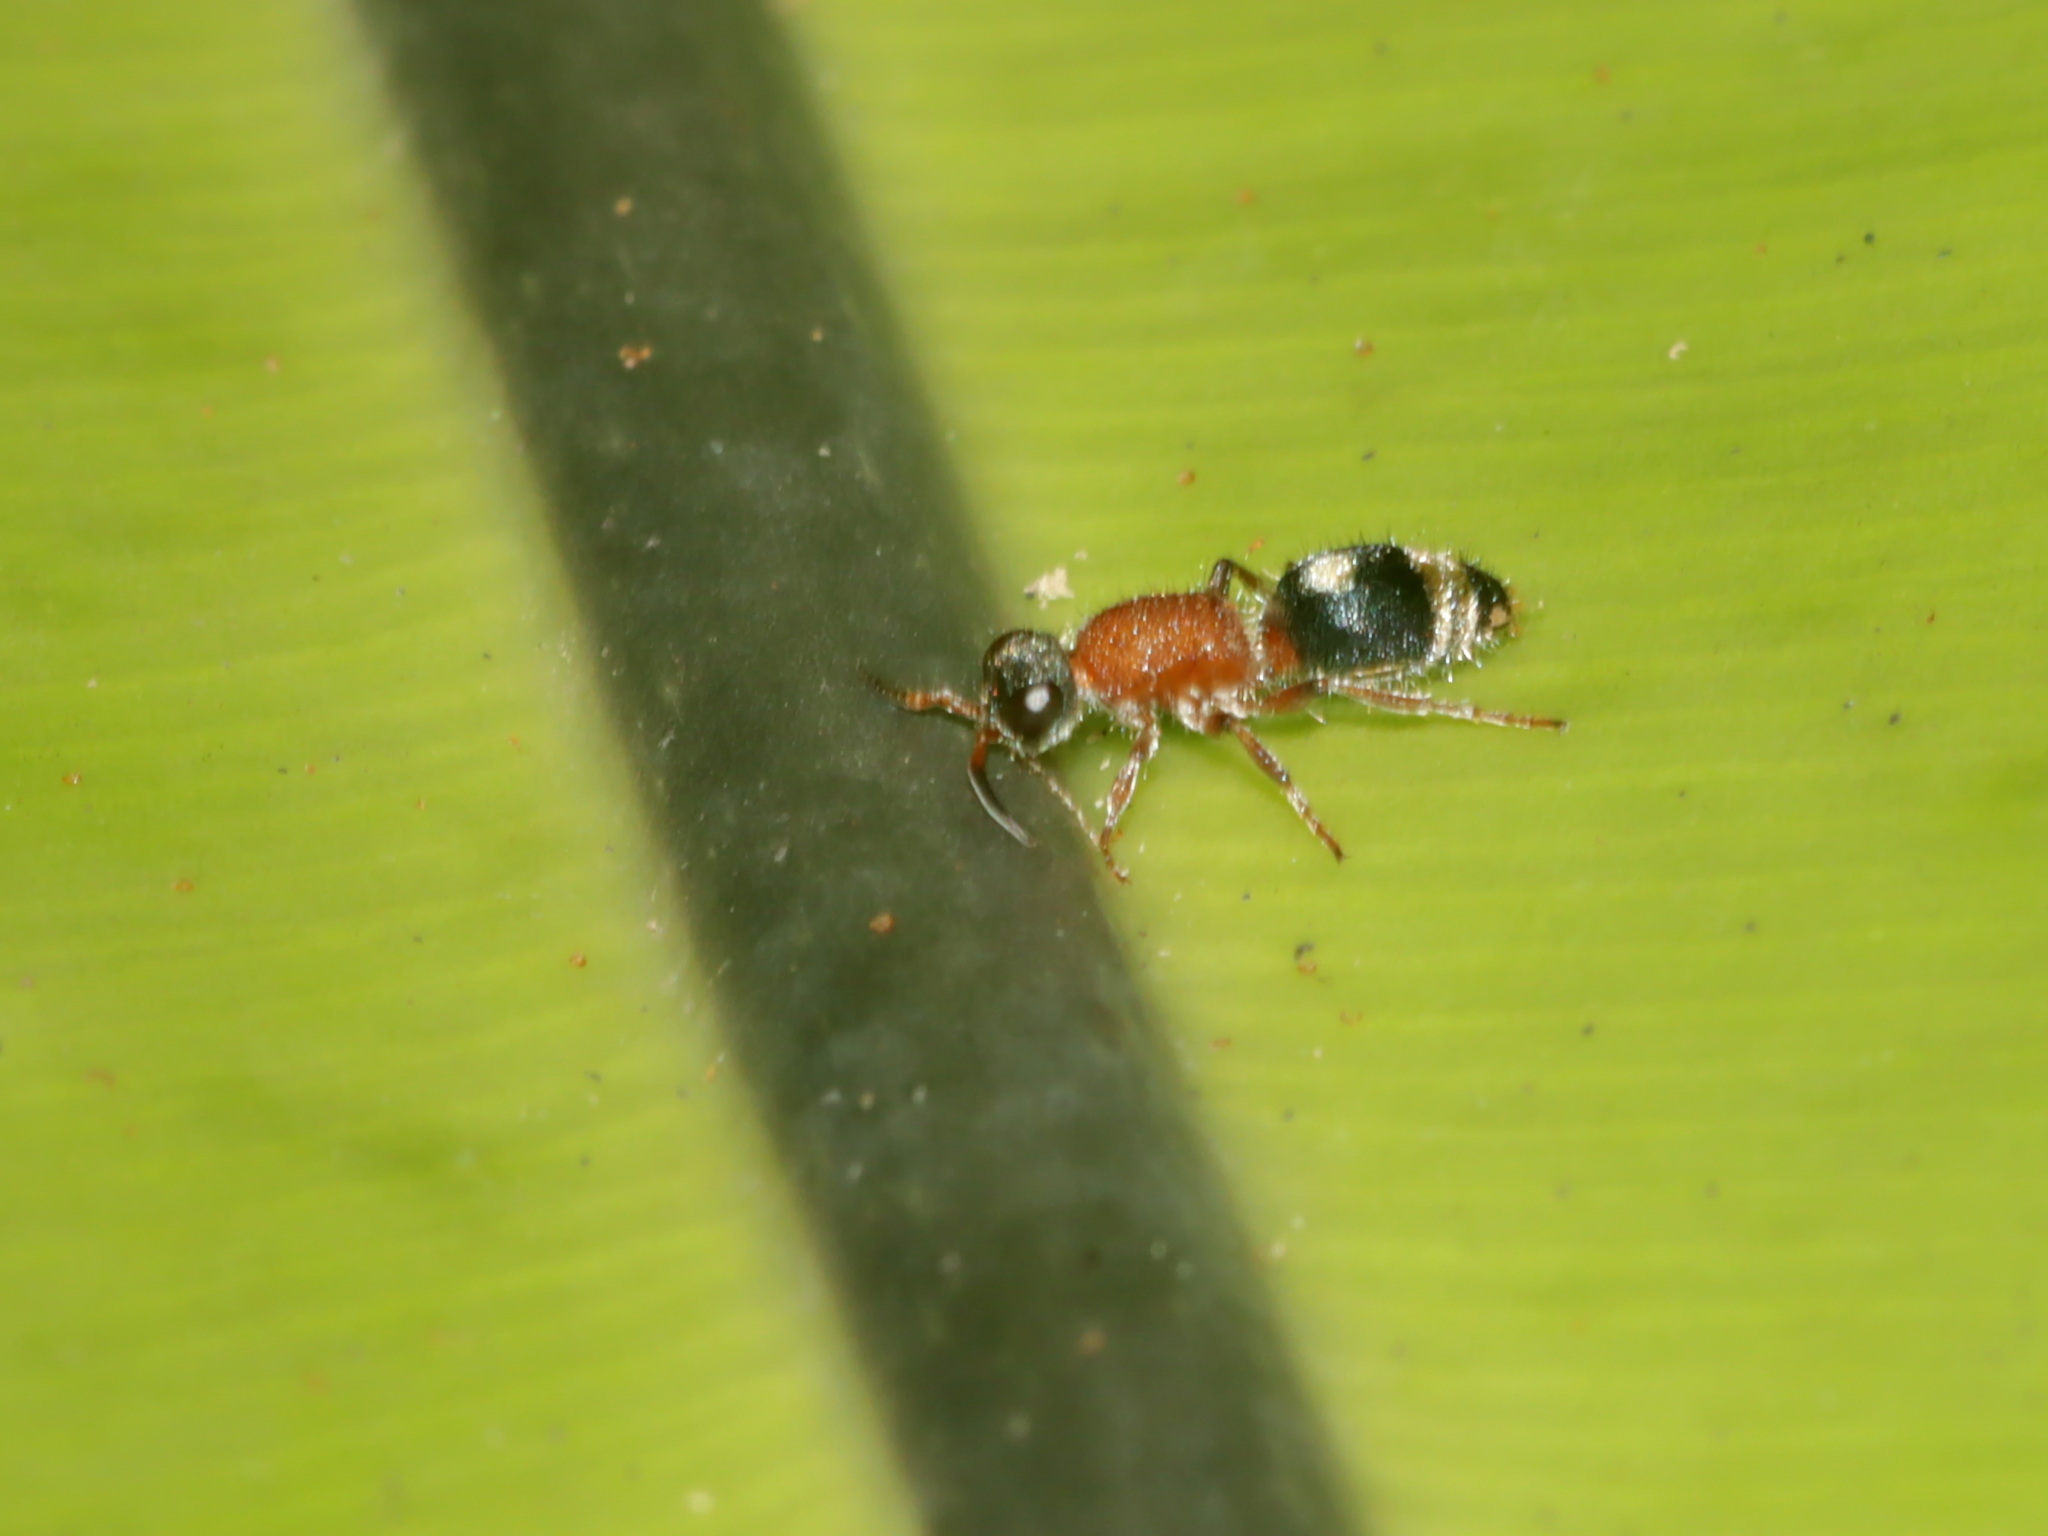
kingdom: Animalia
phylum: Arthropoda
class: Insecta
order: Hymenoptera
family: Mutillidae
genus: Mutilla
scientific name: Mutilla decora
